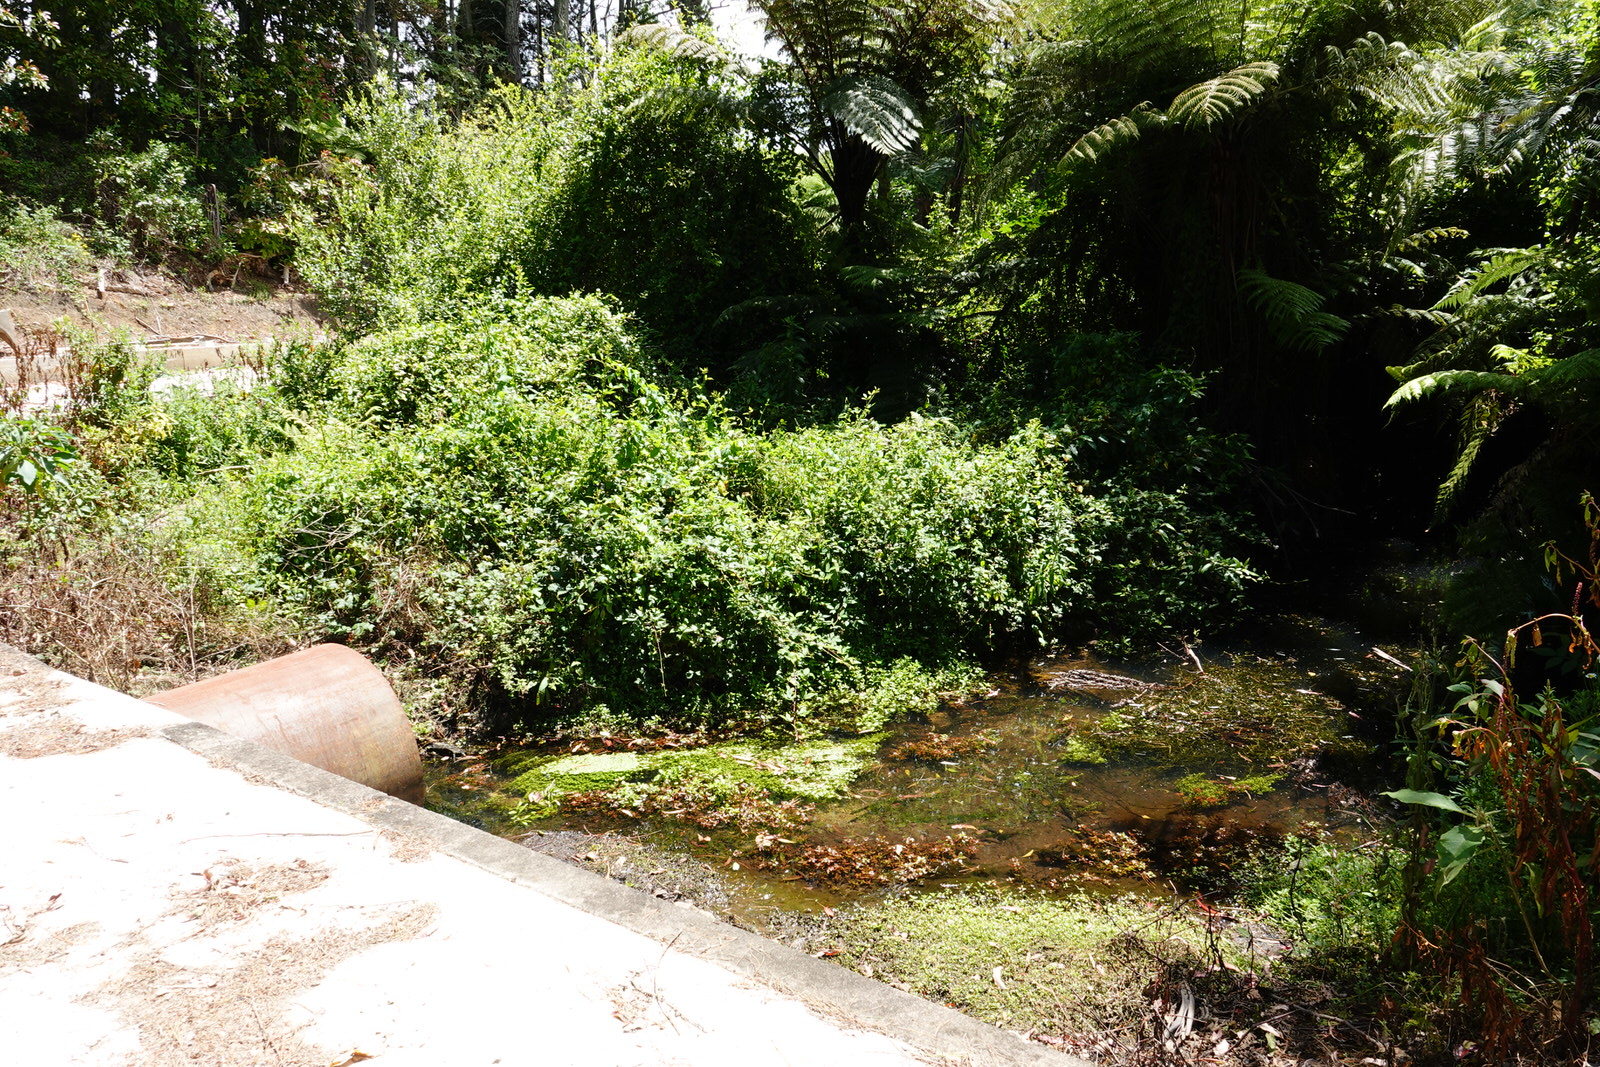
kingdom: Plantae
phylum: Tracheophyta
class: Magnoliopsida
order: Myrtales
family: Onagraceae
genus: Ludwigia
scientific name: Ludwigia palustris
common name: Hampshire-purslane
